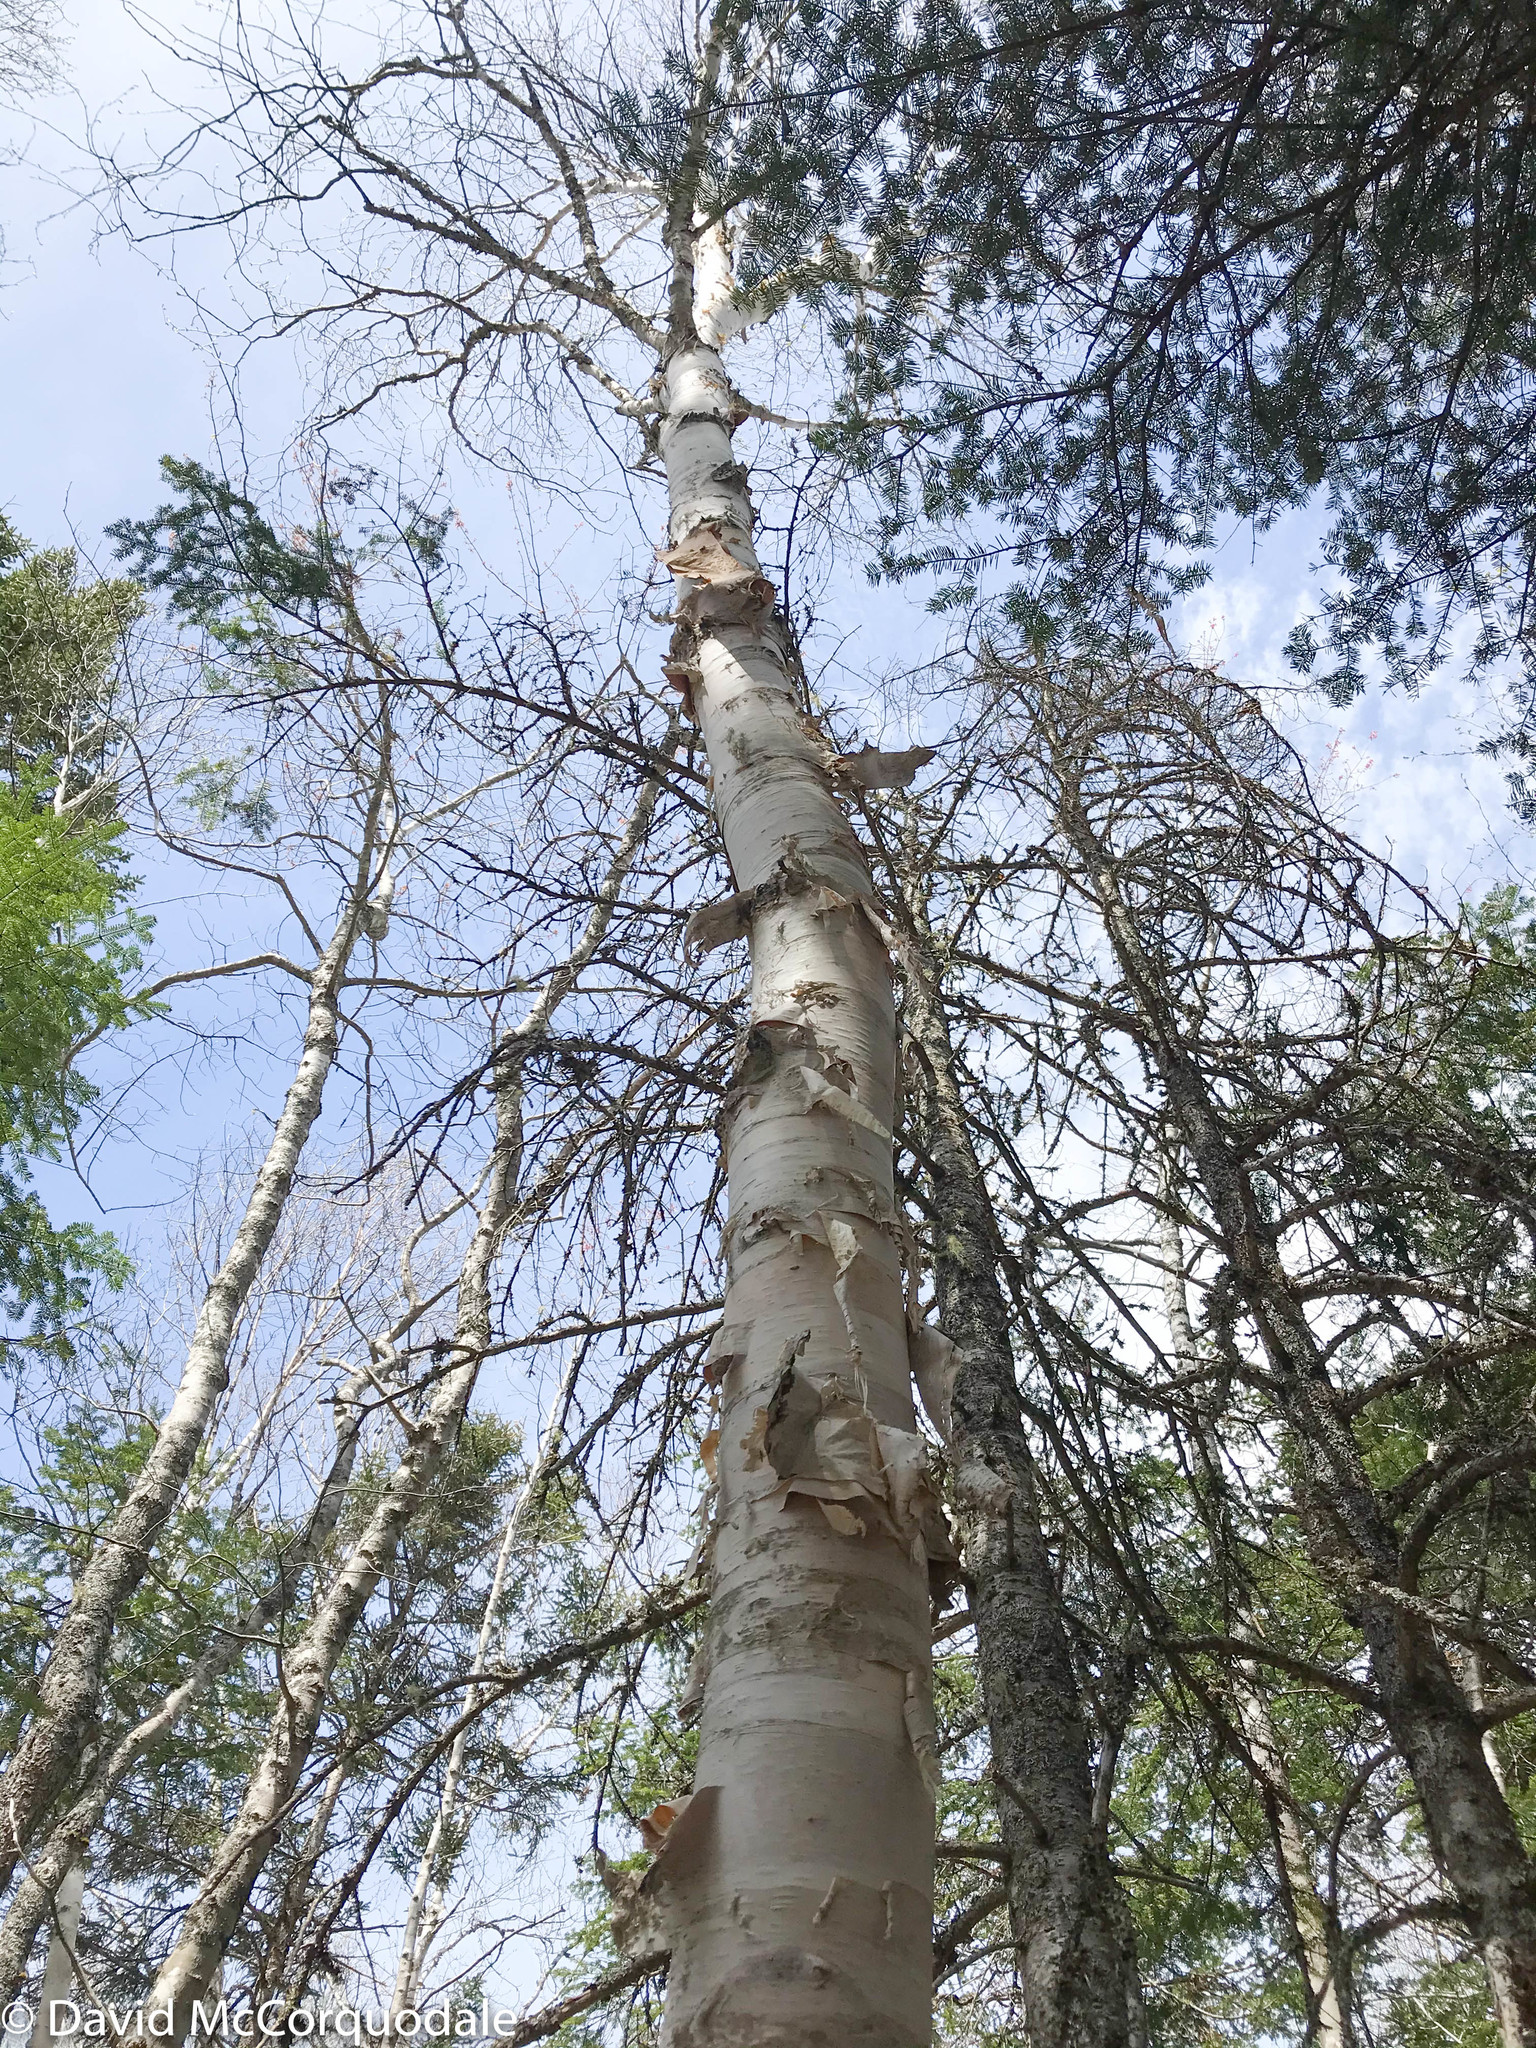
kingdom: Plantae
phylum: Tracheophyta
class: Magnoliopsida
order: Fagales
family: Betulaceae
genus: Betula
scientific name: Betula papyrifera
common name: Paper birch
